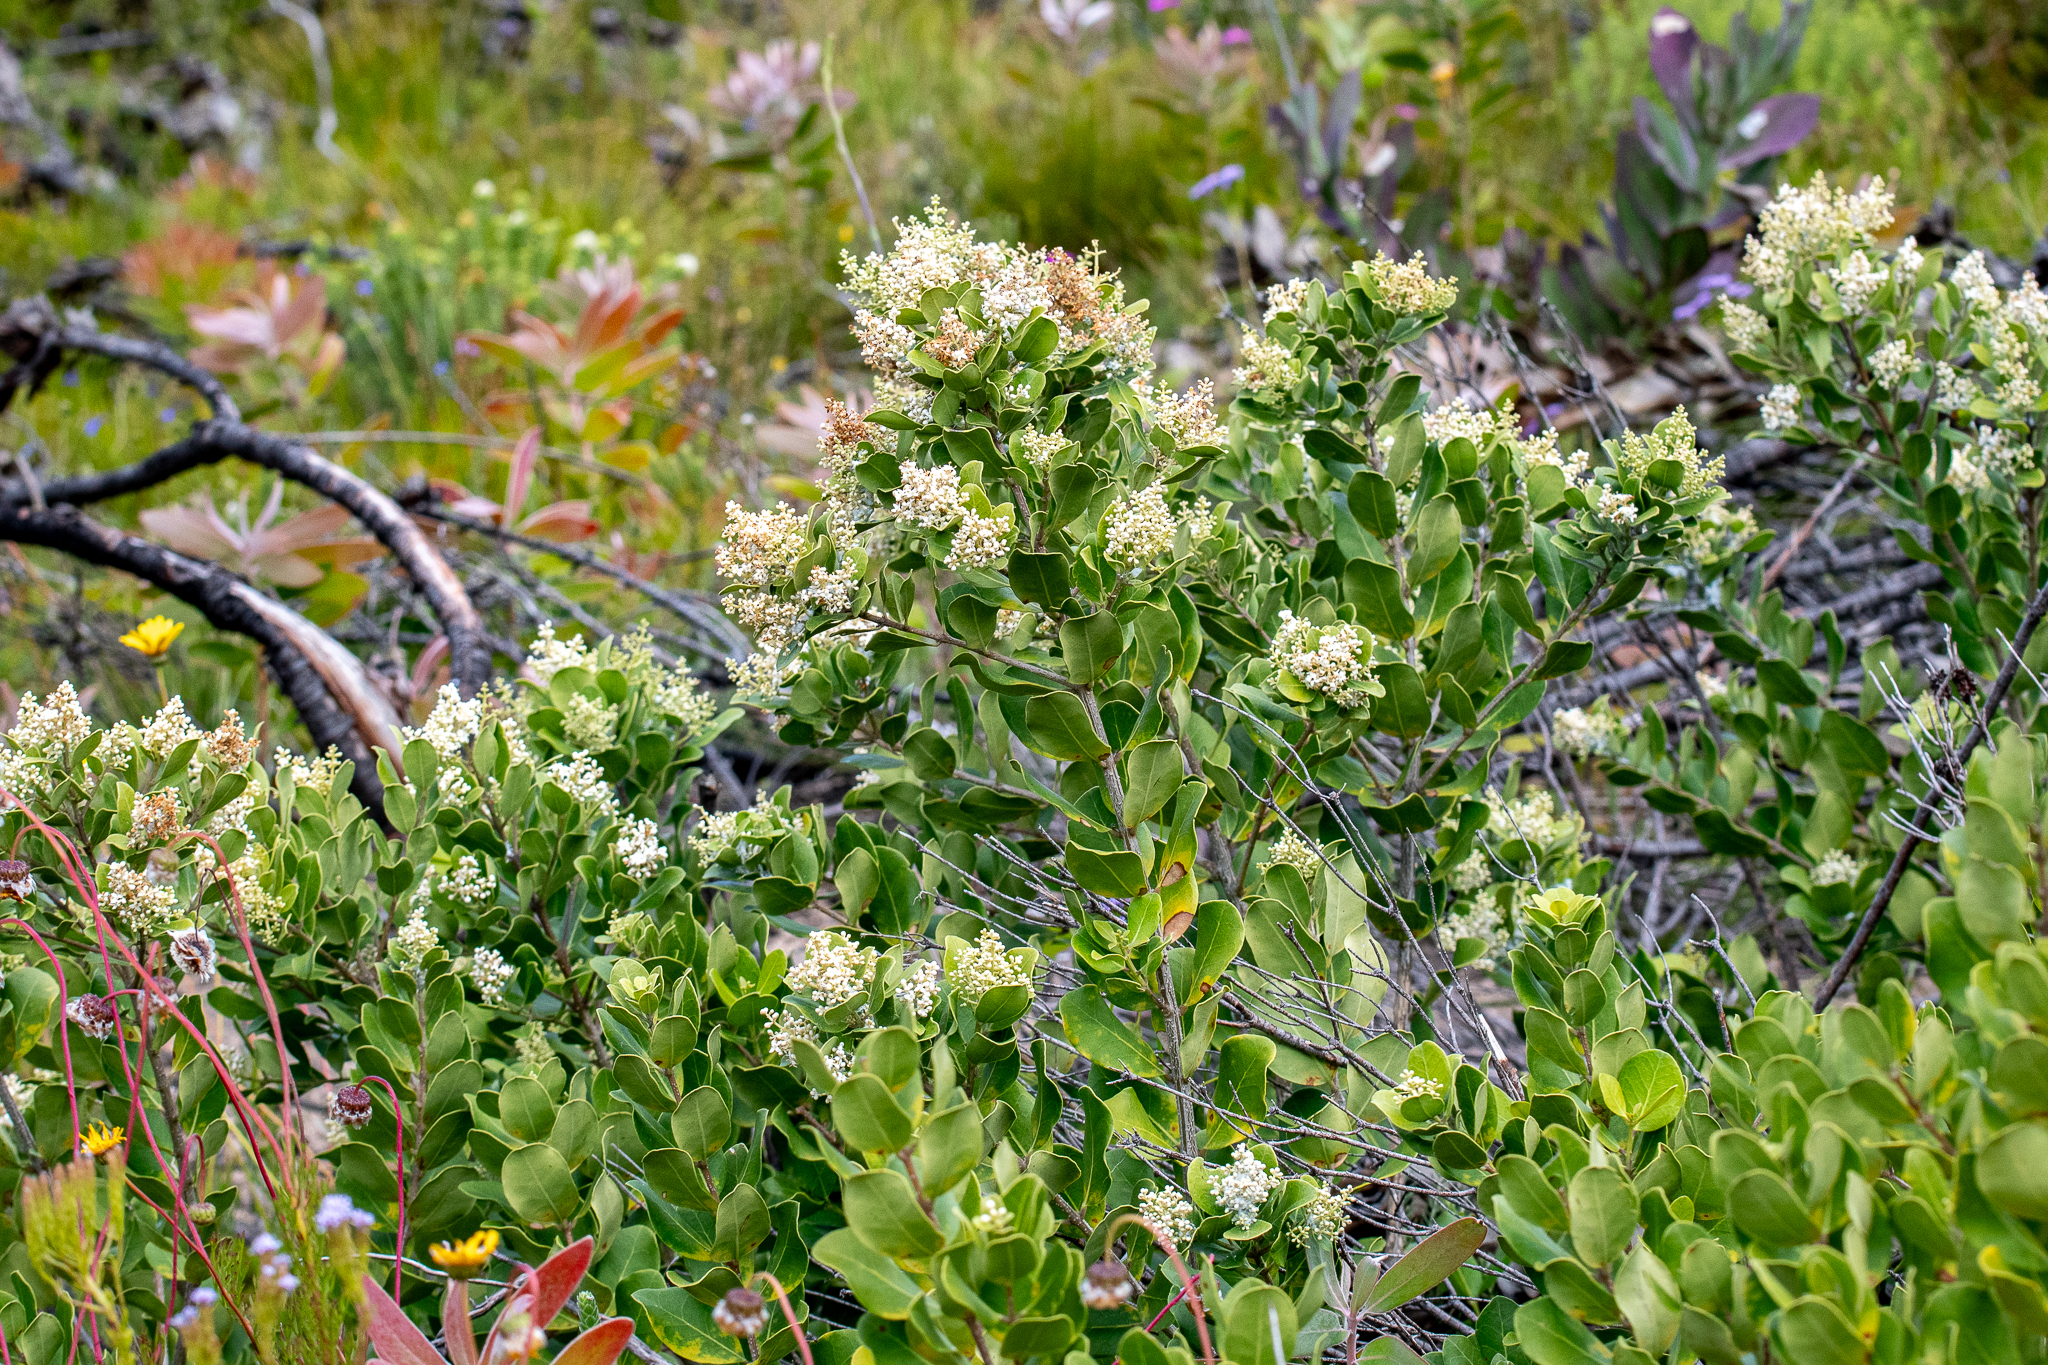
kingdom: Plantae
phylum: Tracheophyta
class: Magnoliopsida
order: Lamiales
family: Oleaceae
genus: Olea
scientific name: Olea capensis
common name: Black ironwood
